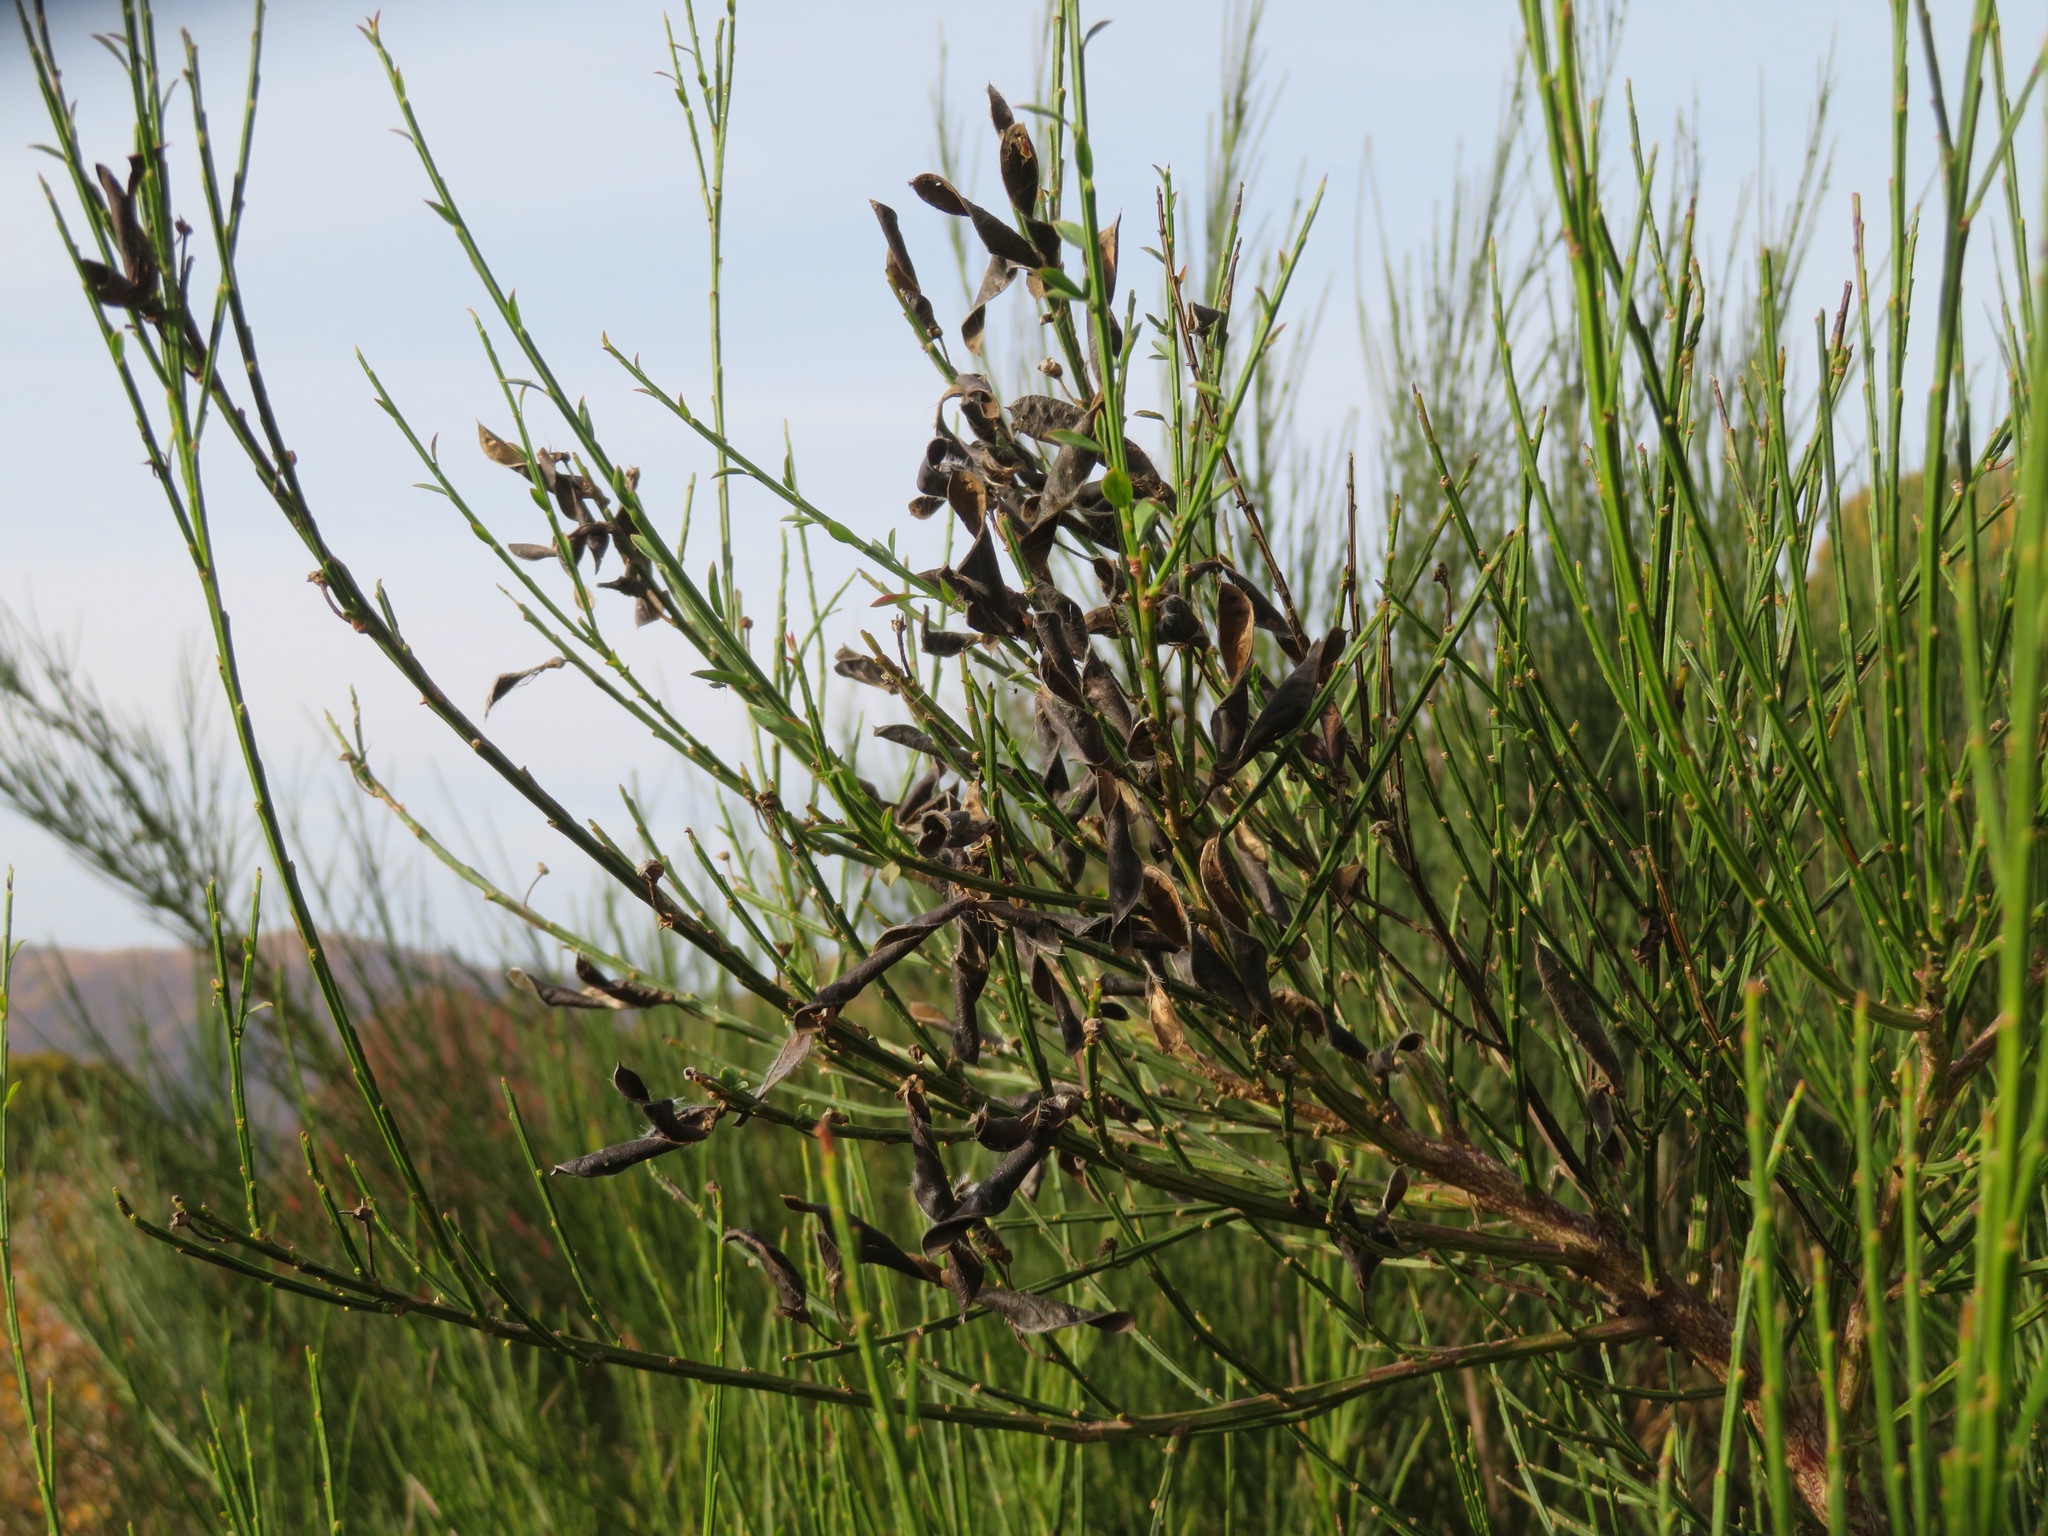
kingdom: Plantae
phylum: Tracheophyta
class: Magnoliopsida
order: Fabales
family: Fabaceae
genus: Cytisus
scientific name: Cytisus scoparius
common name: Scotch broom
